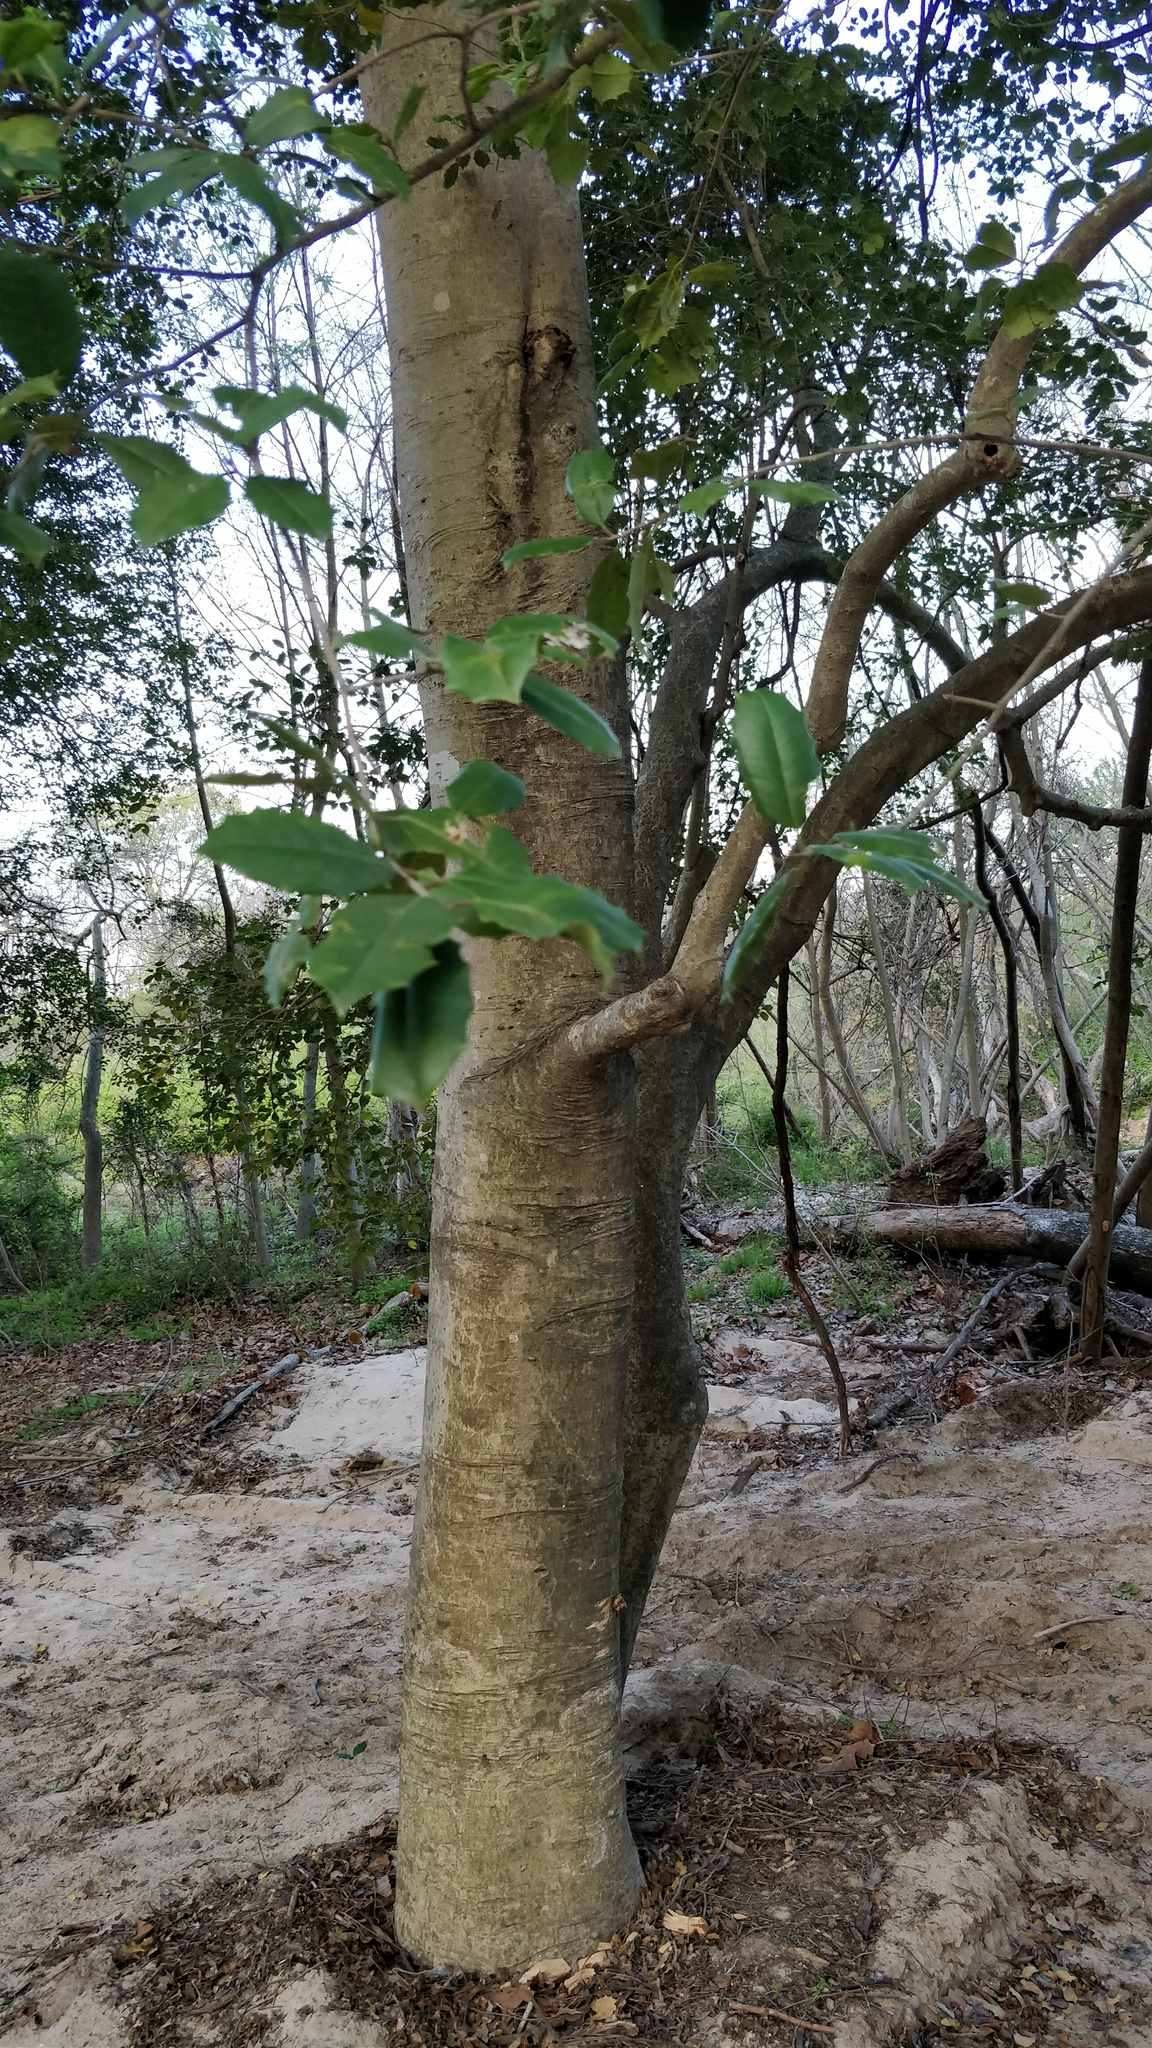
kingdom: Plantae
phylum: Tracheophyta
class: Magnoliopsida
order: Aquifoliales
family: Aquifoliaceae
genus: Ilex
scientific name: Ilex opaca
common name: American holly
